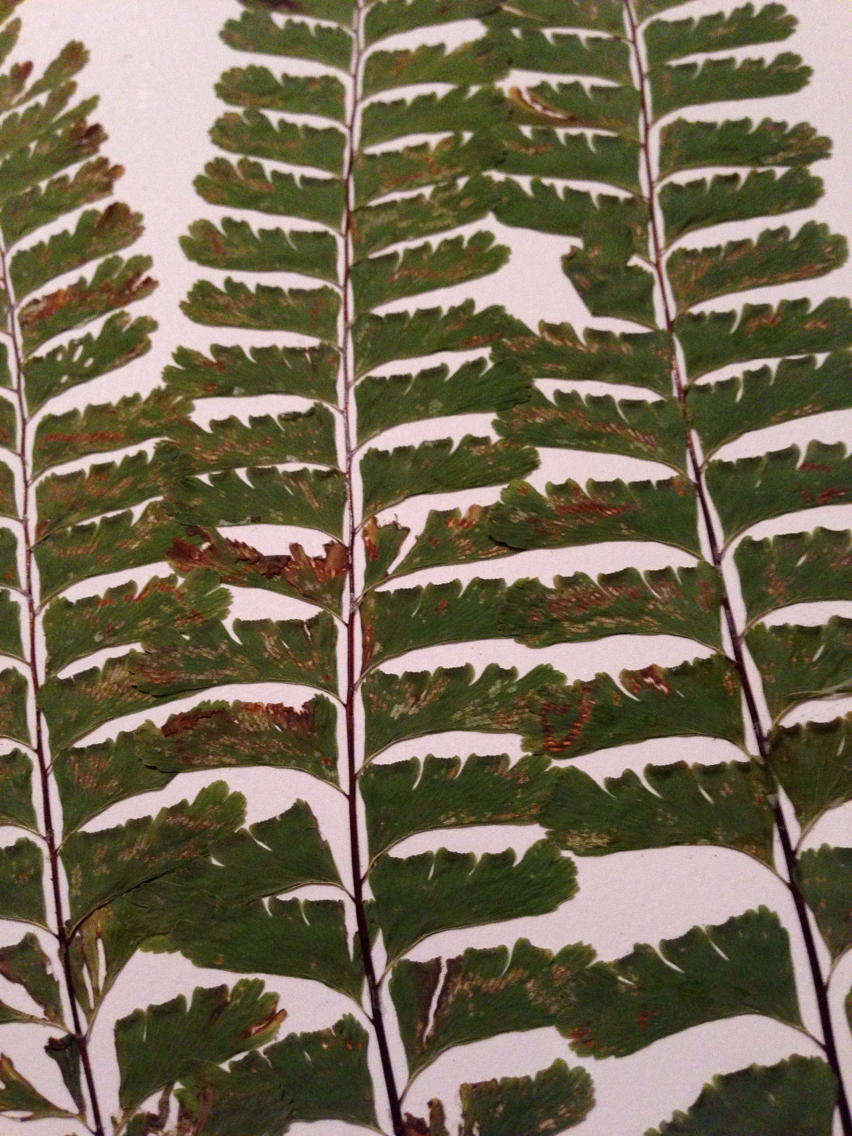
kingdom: Plantae
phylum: Tracheophyta
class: Polypodiopsida
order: Polypodiales
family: Pteridaceae
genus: Adiantum
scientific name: Adiantum pedatum
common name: Five-finger fern
